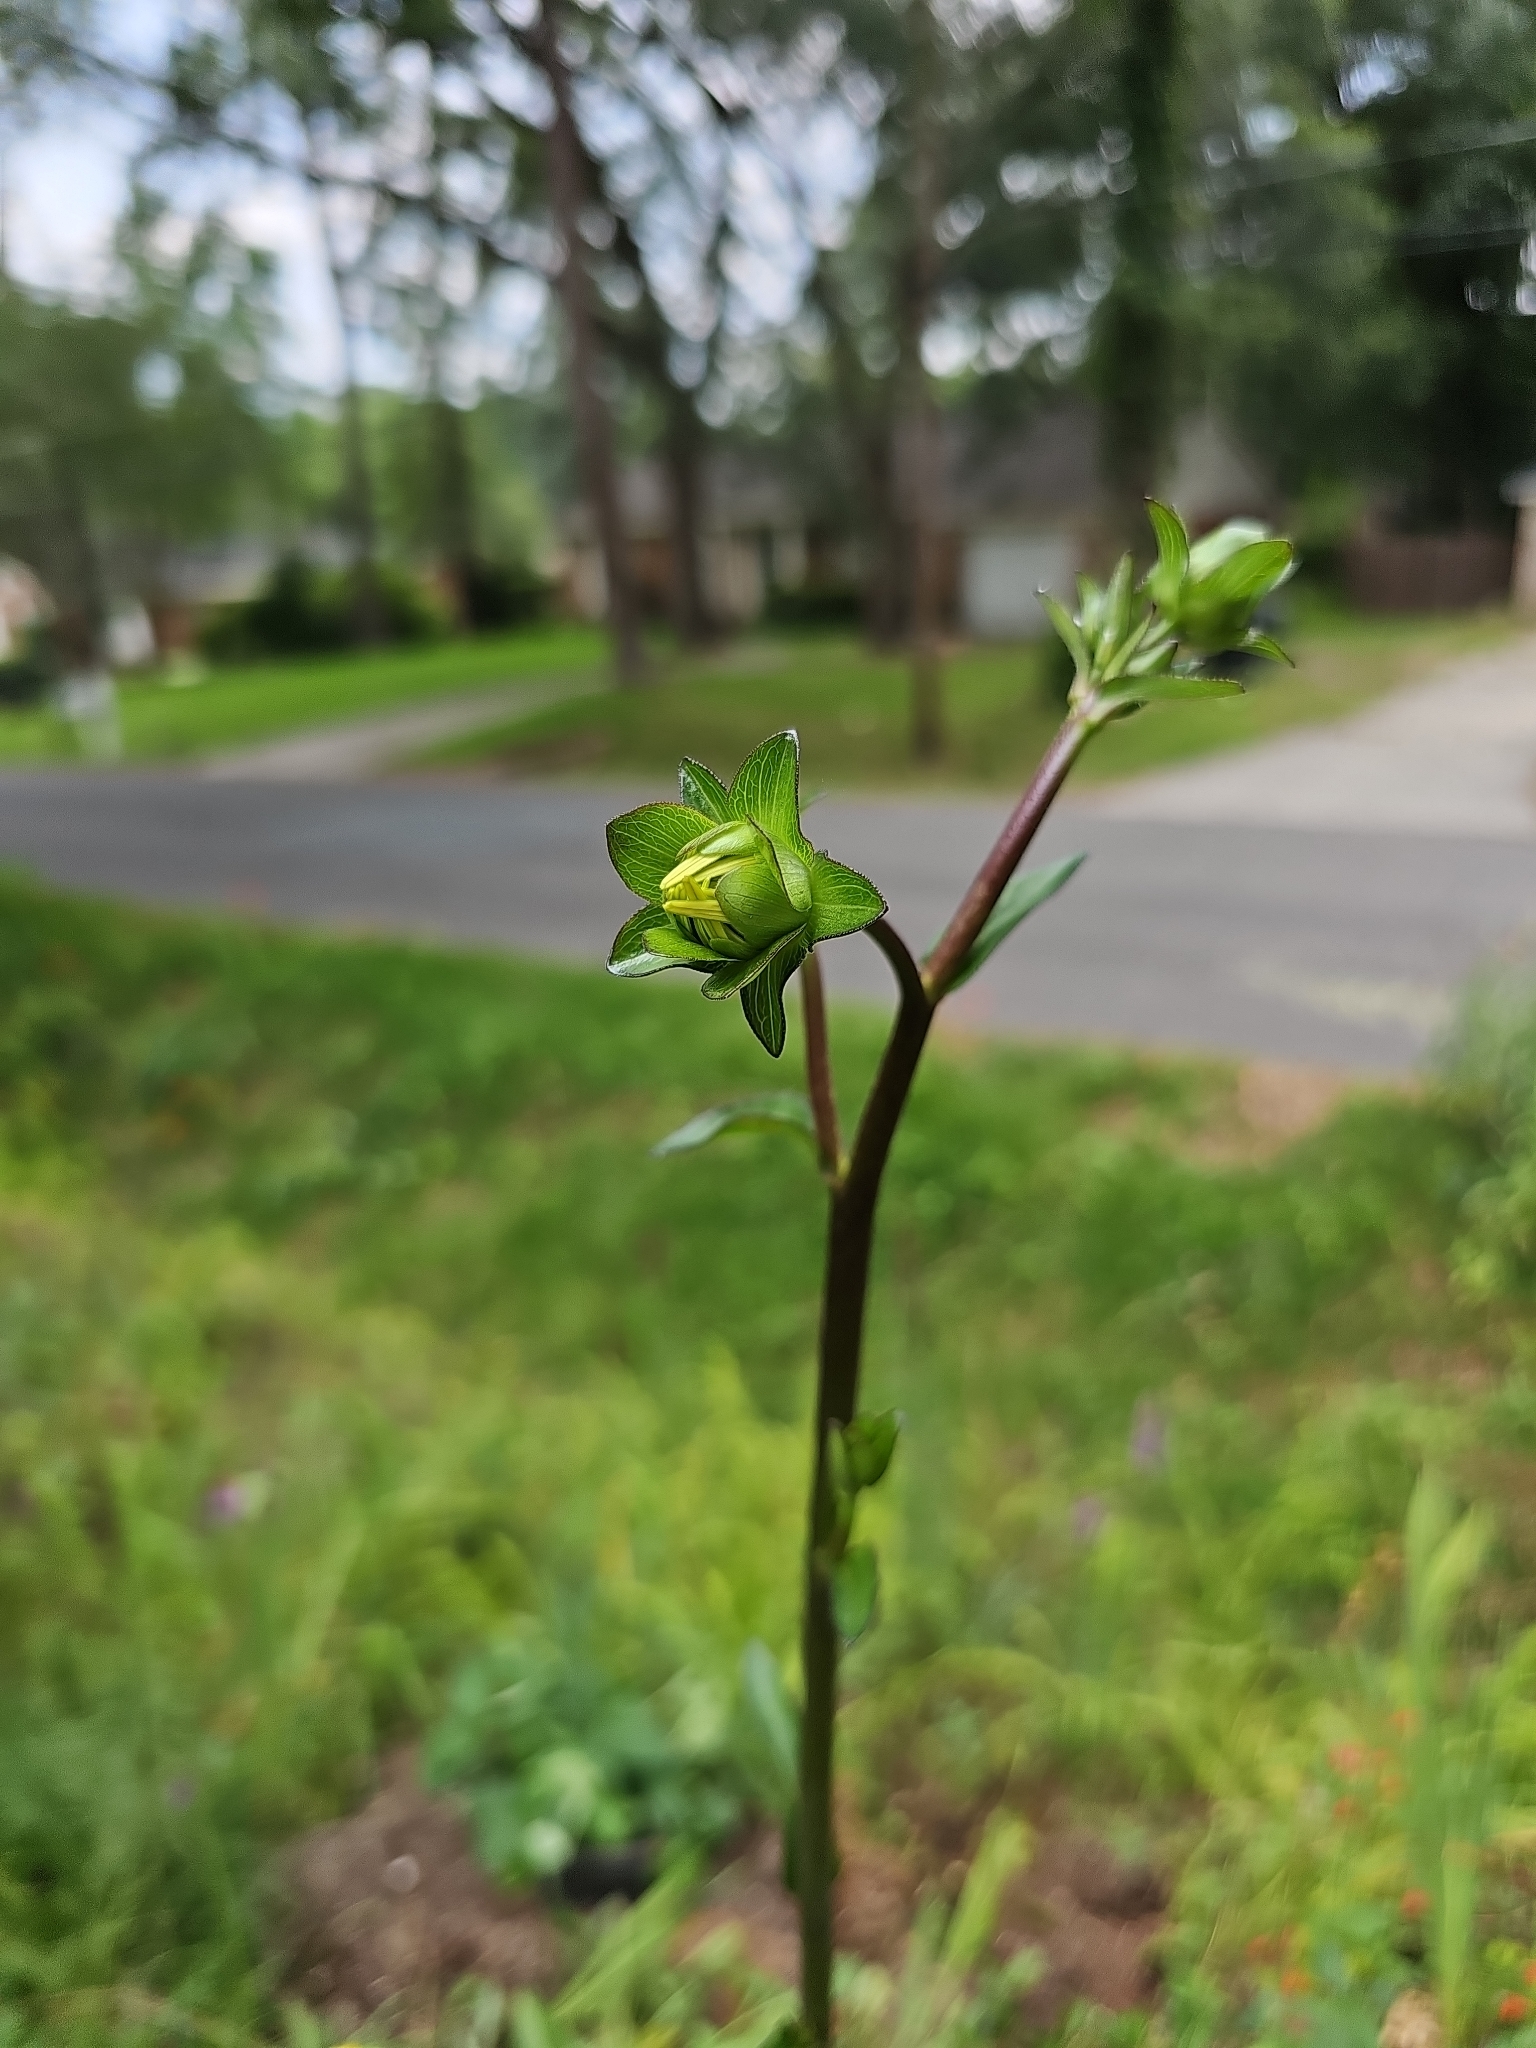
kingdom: Plantae
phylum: Tracheophyta
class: Magnoliopsida
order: Asterales
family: Asteraceae
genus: Silphium
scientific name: Silphium compositum
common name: Lesser basal-leaf rosinweed
